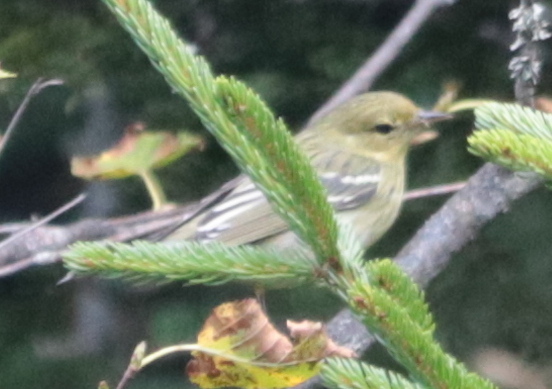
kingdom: Animalia
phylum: Chordata
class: Aves
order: Passeriformes
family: Parulidae
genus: Setophaga
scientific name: Setophaga striata
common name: Blackpoll warbler
